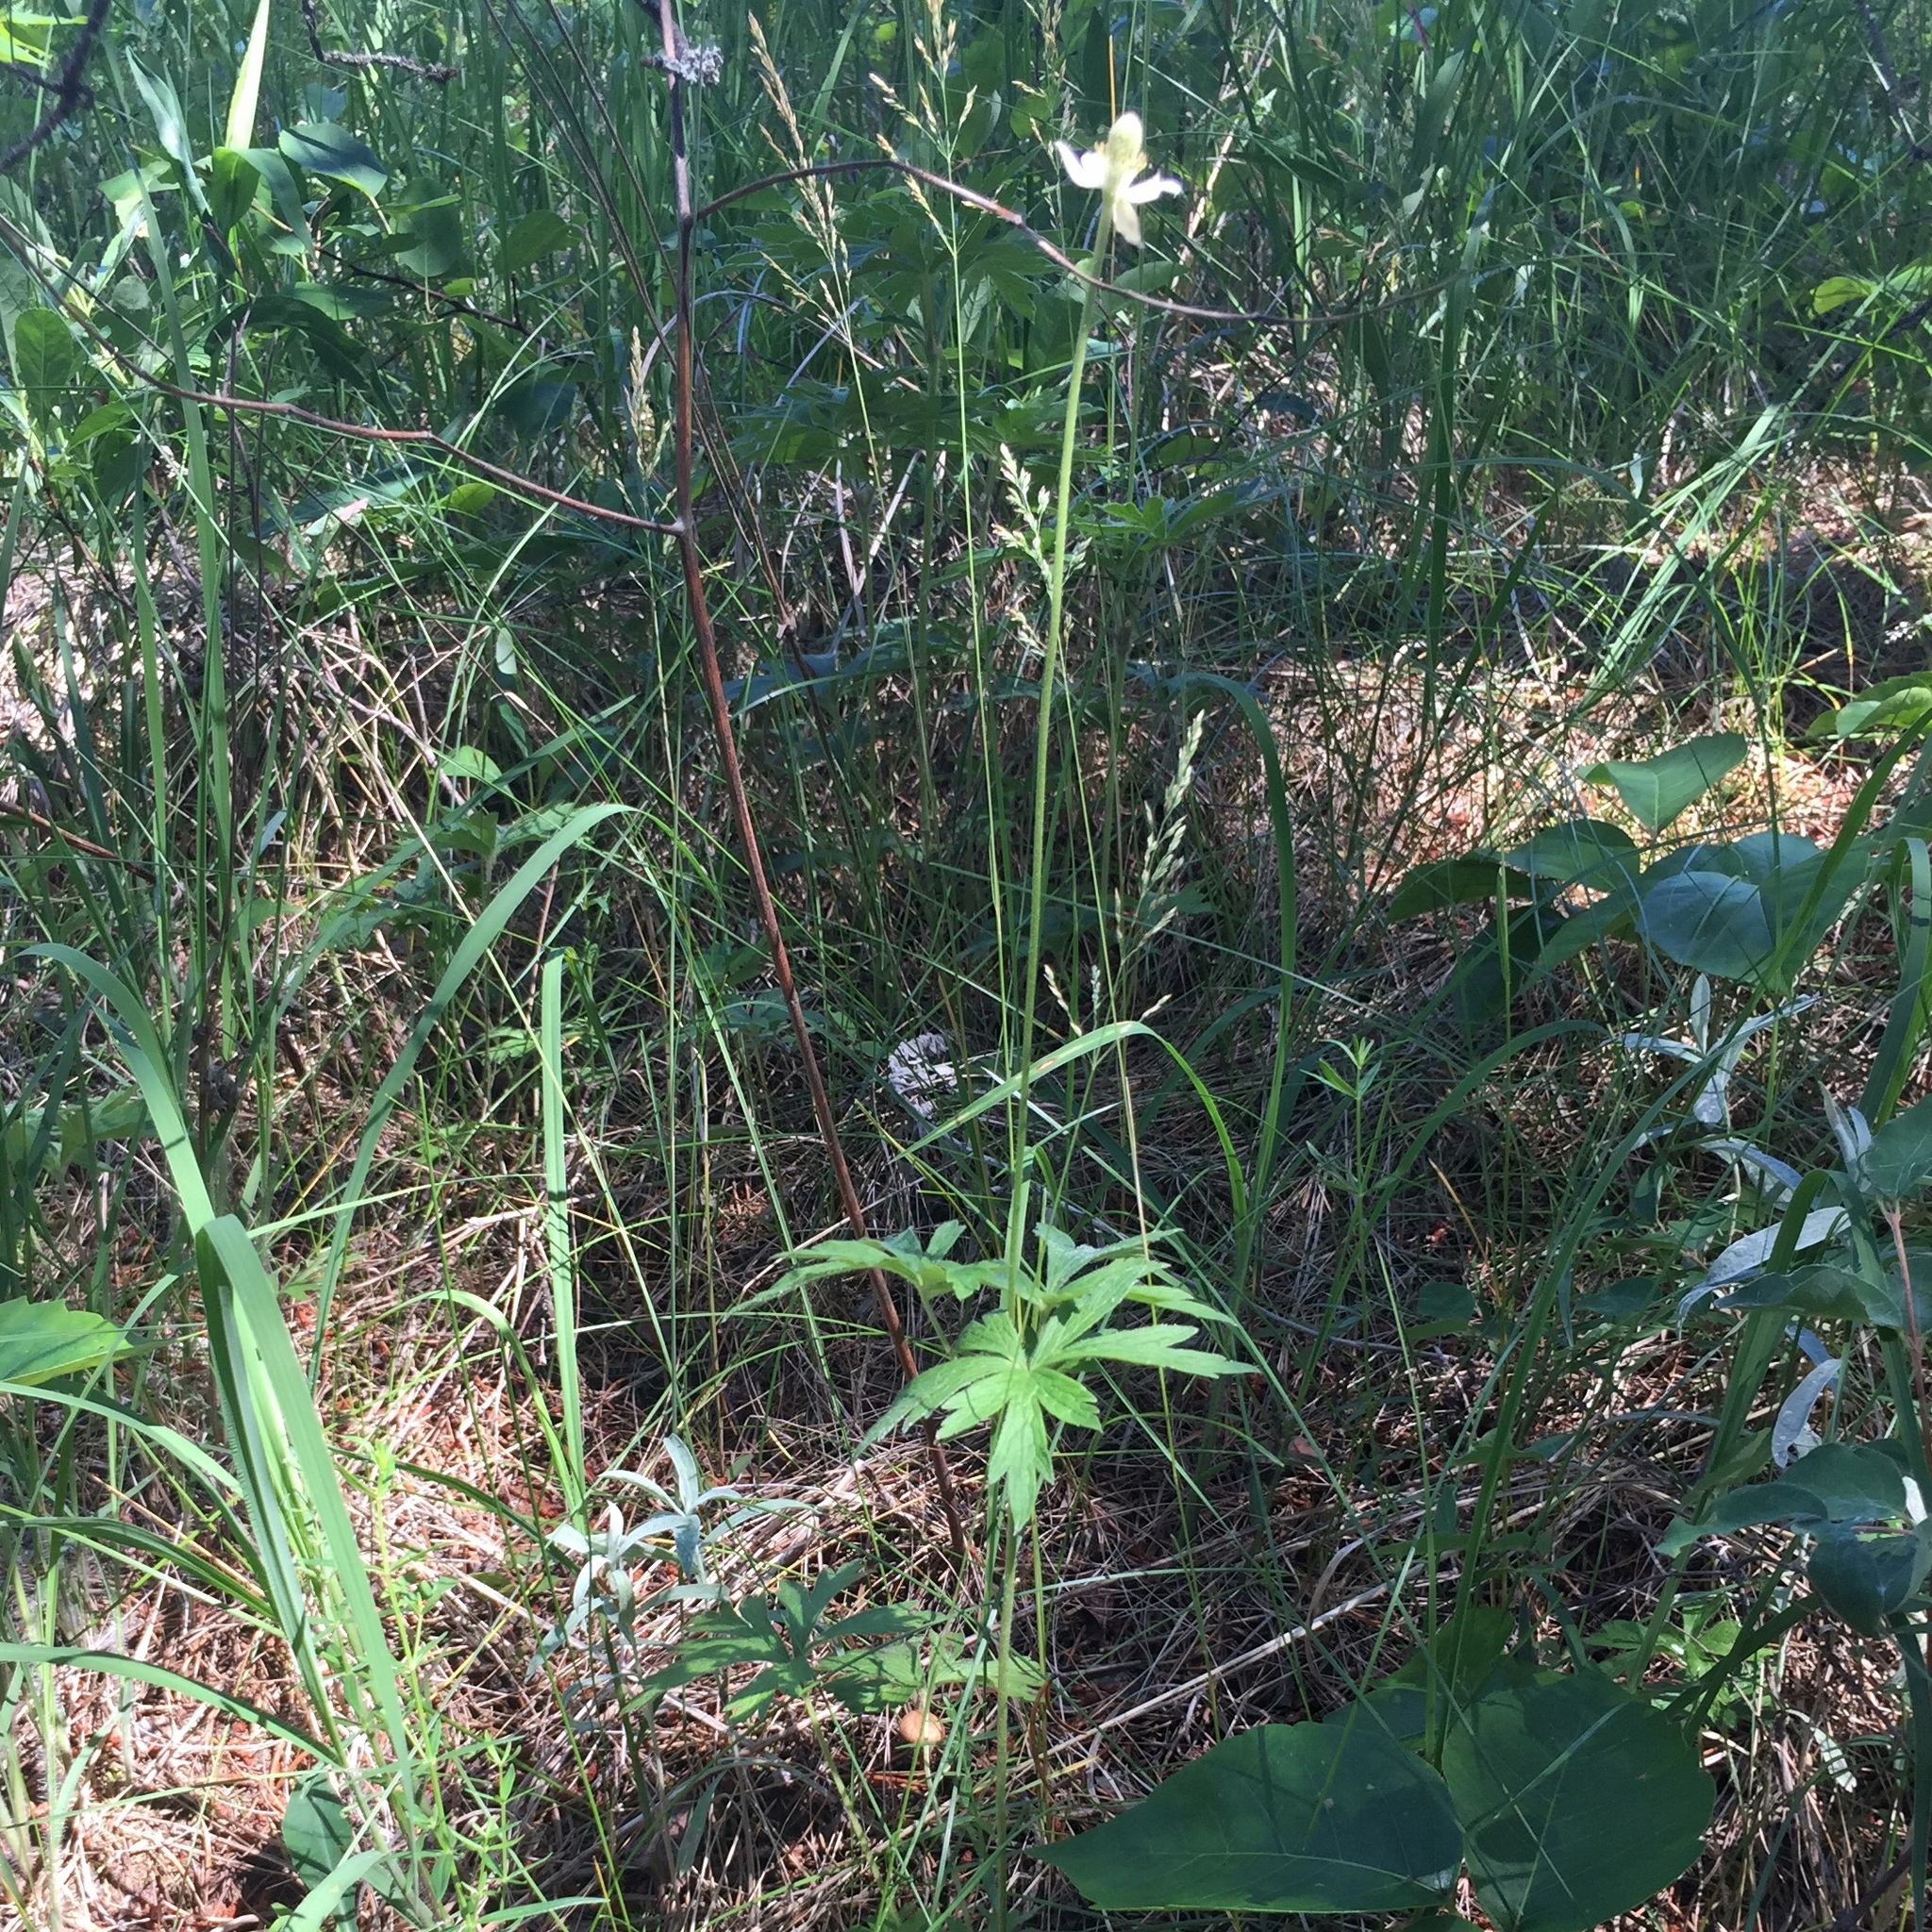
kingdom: Plantae
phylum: Tracheophyta
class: Magnoliopsida
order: Ranunculales
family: Ranunculaceae
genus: Anemone
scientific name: Anemone cylindrica
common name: Candle anemone
